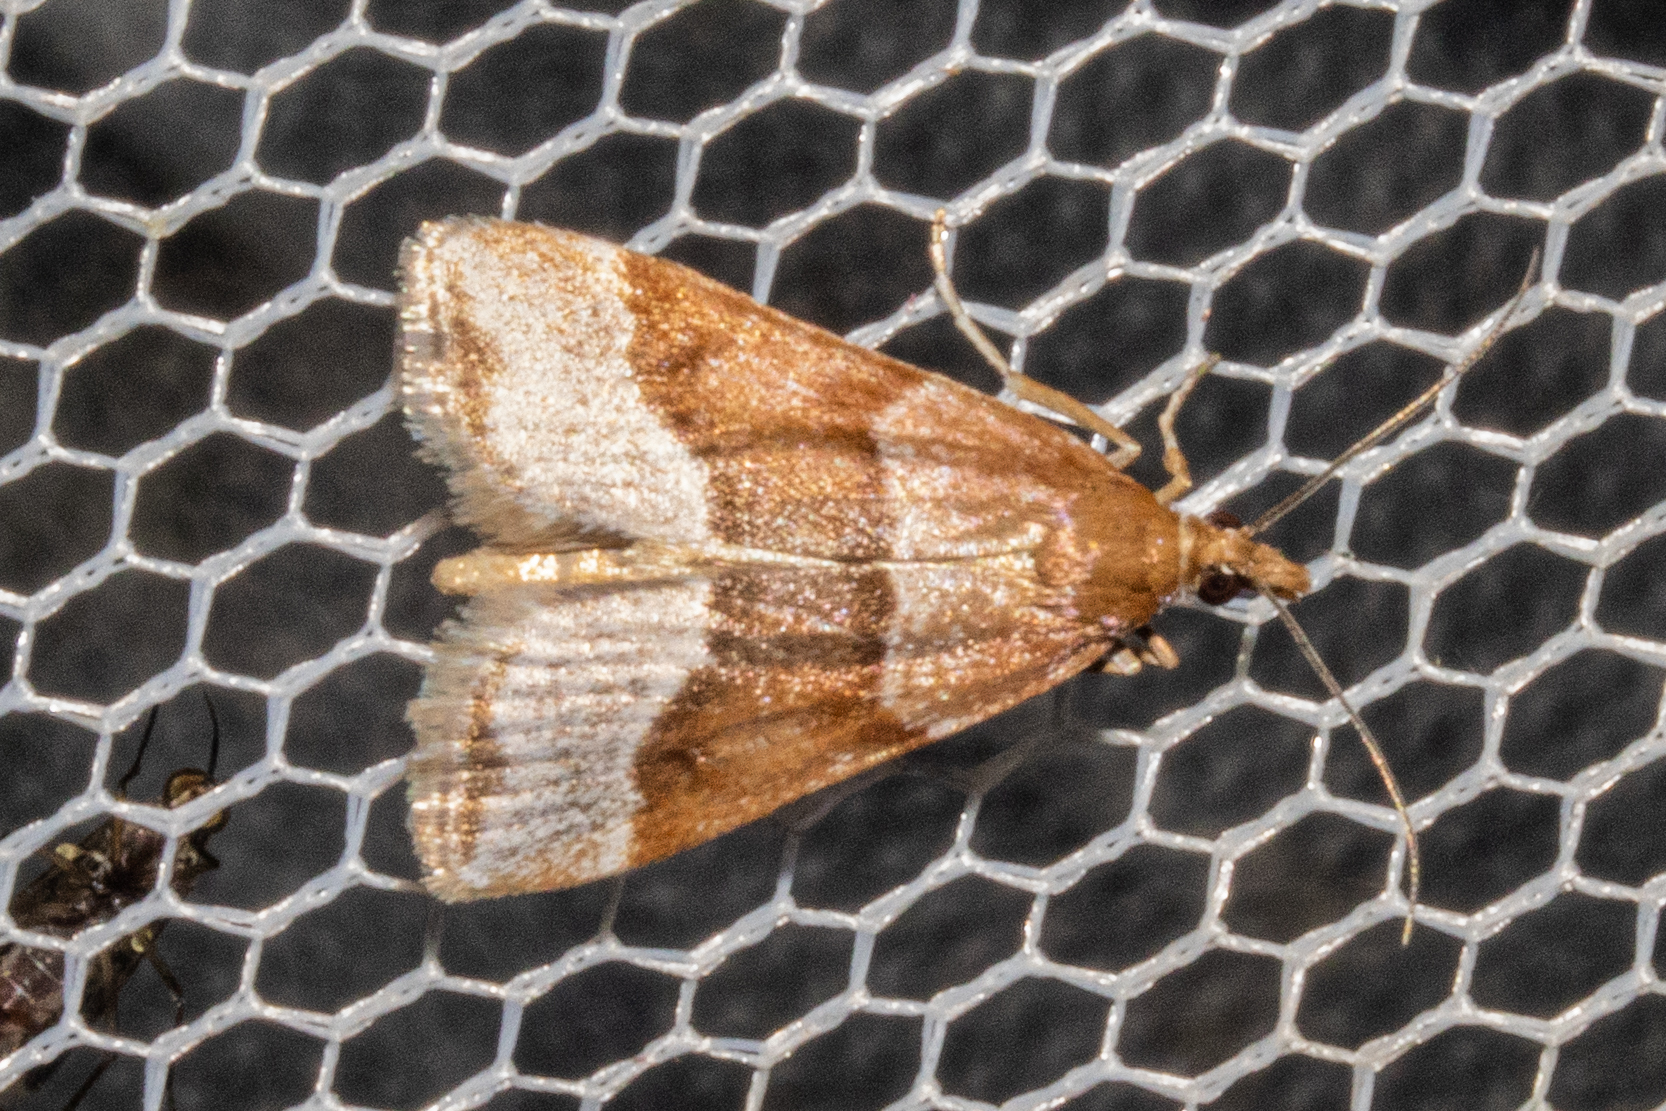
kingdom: Animalia
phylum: Arthropoda
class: Insecta
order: Lepidoptera
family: Crambidae
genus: Eudonia
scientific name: Eudonia feredayi
